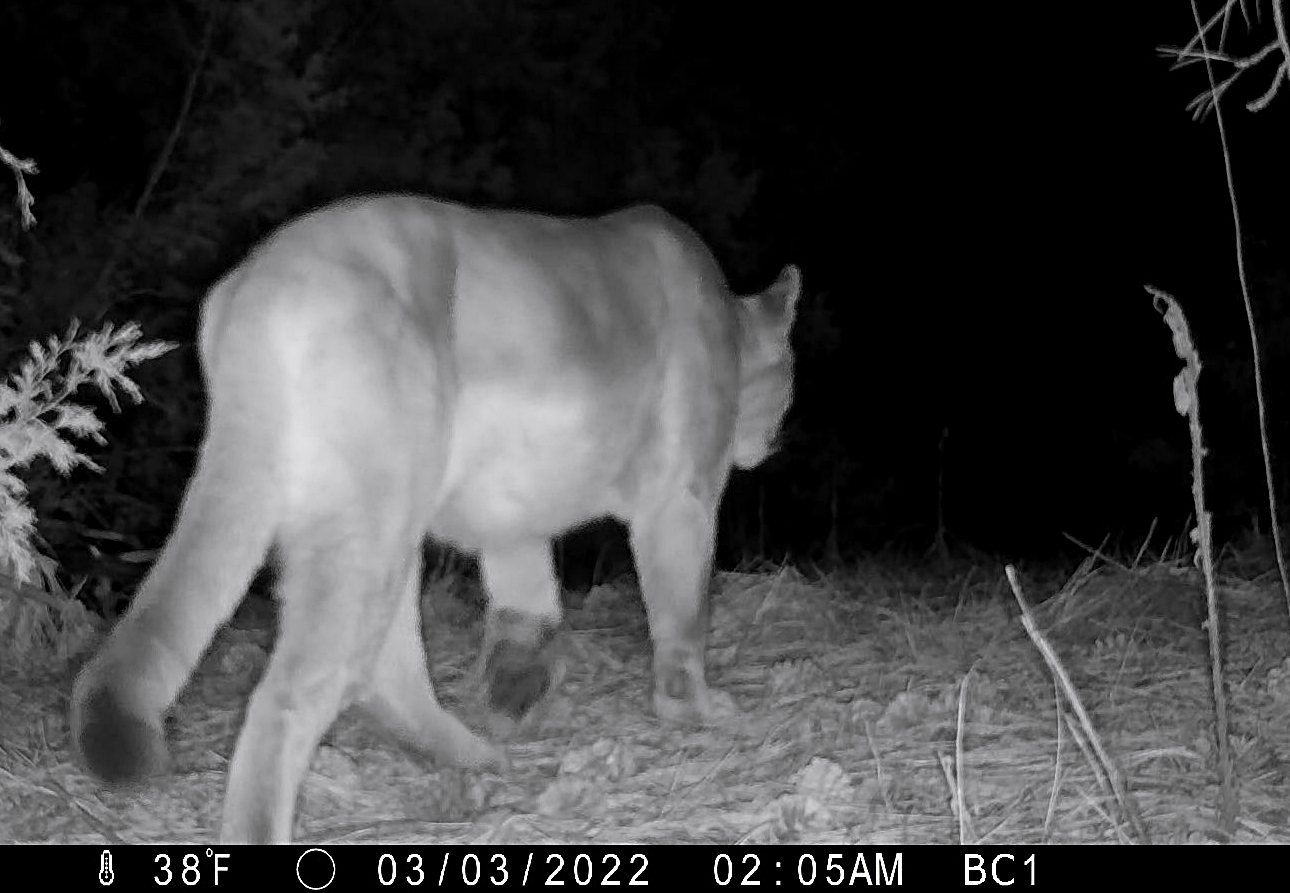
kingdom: Animalia
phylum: Chordata
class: Mammalia
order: Carnivora
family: Felidae
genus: Puma
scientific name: Puma concolor
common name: Puma
